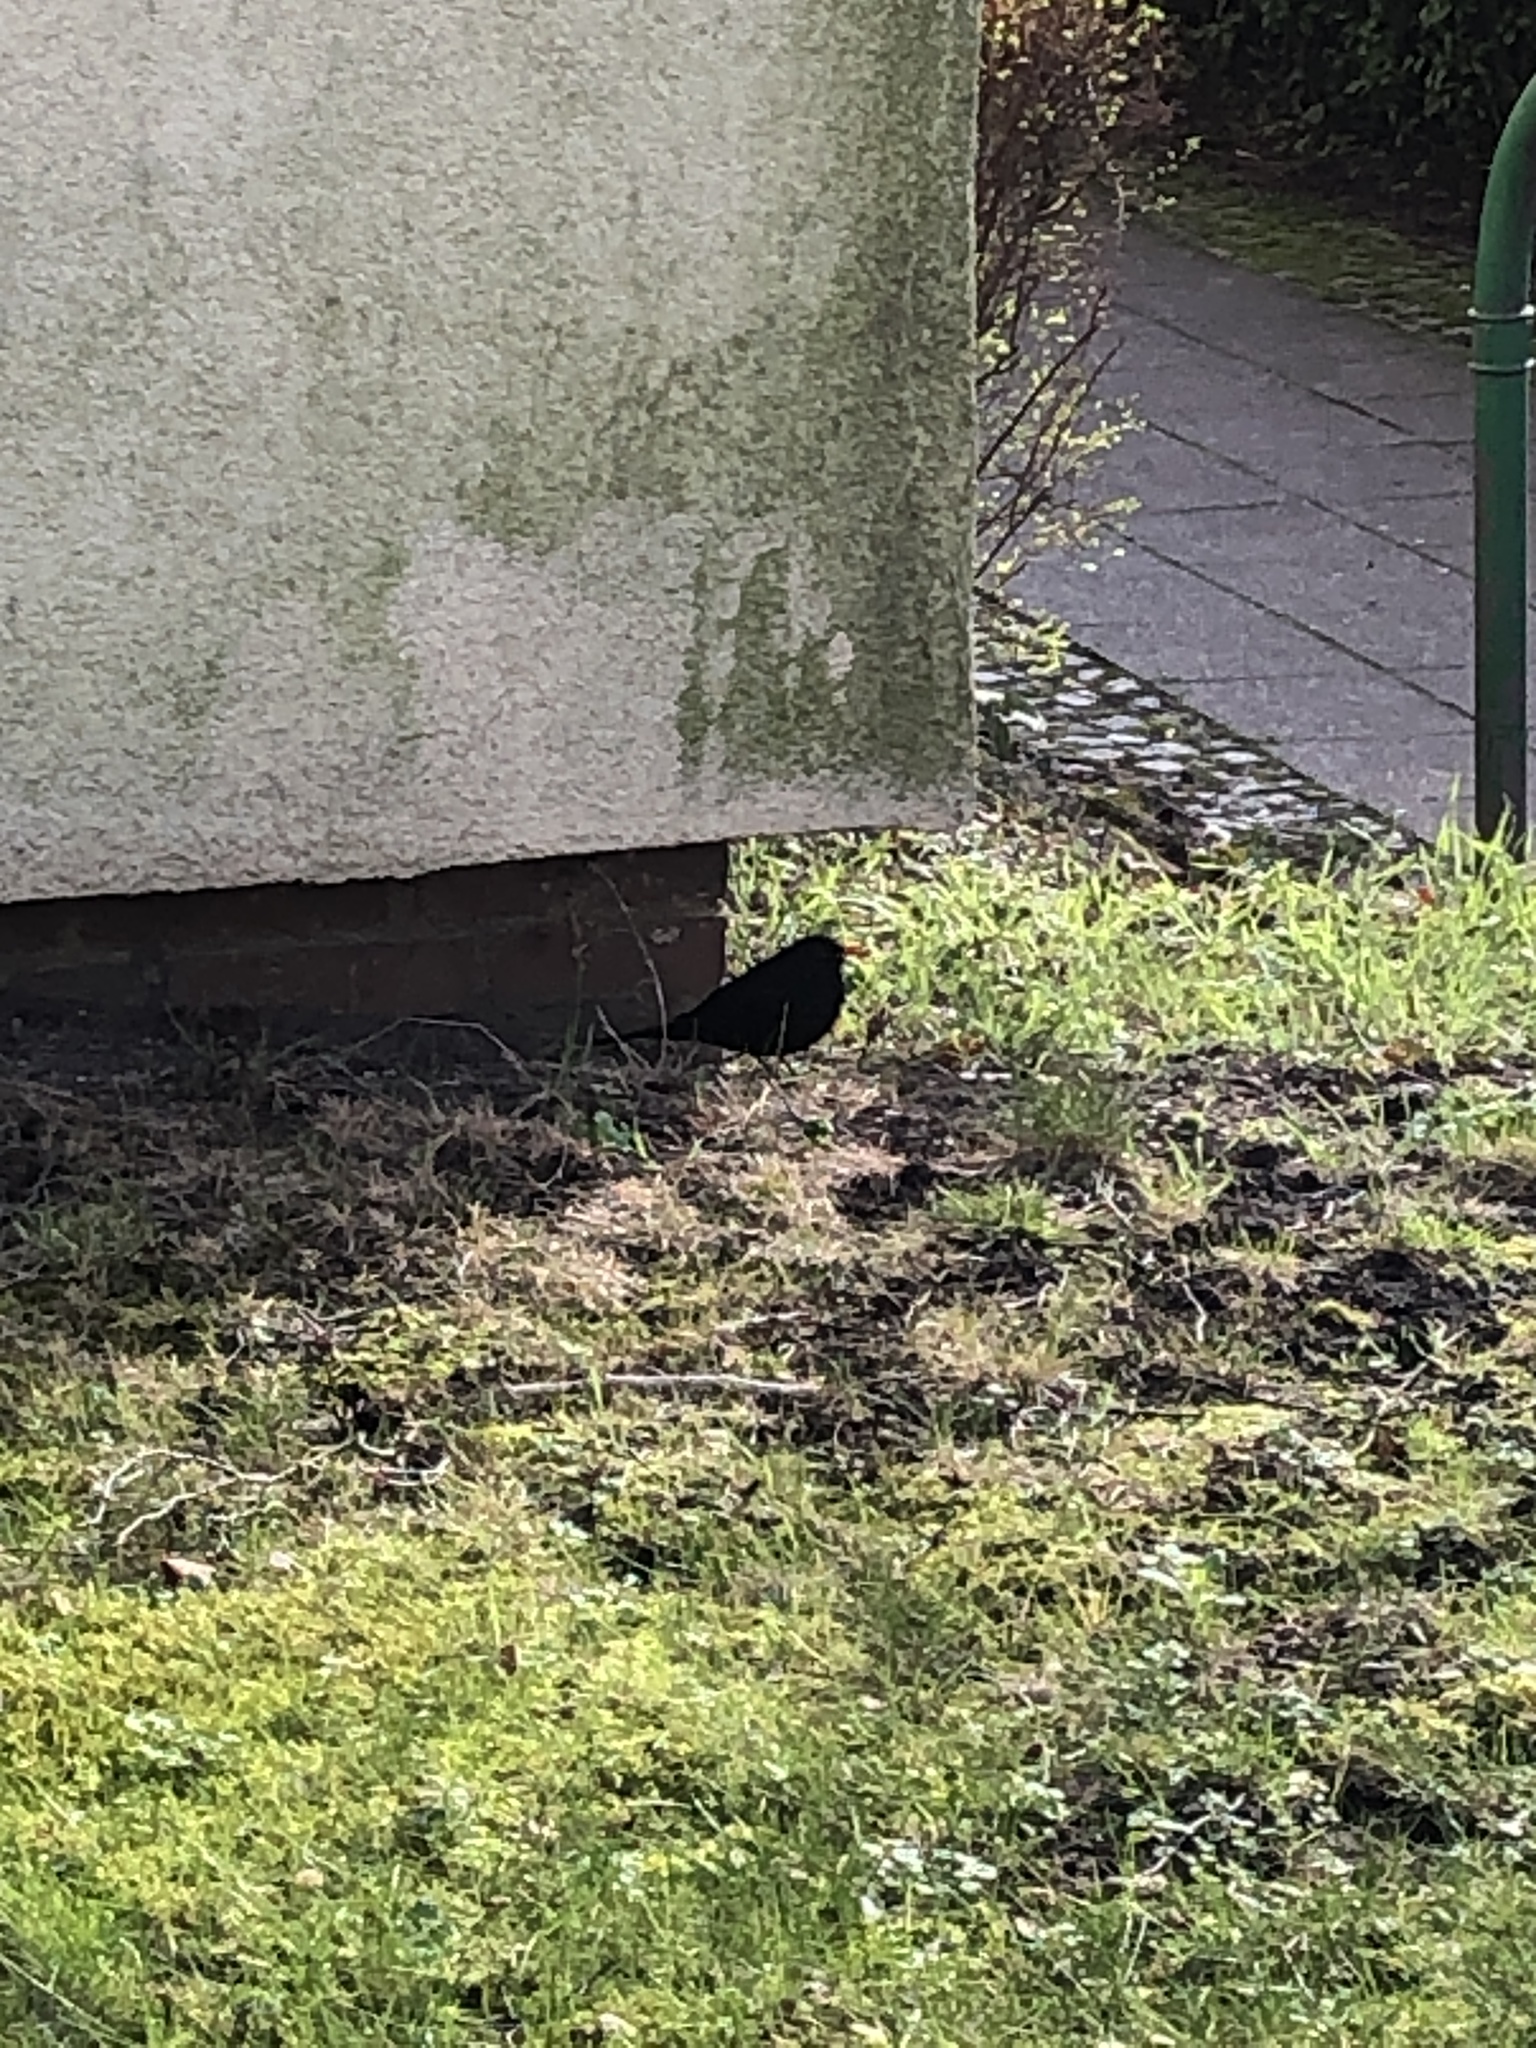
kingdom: Animalia
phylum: Chordata
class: Aves
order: Passeriformes
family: Turdidae
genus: Turdus
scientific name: Turdus merula
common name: Common blackbird
